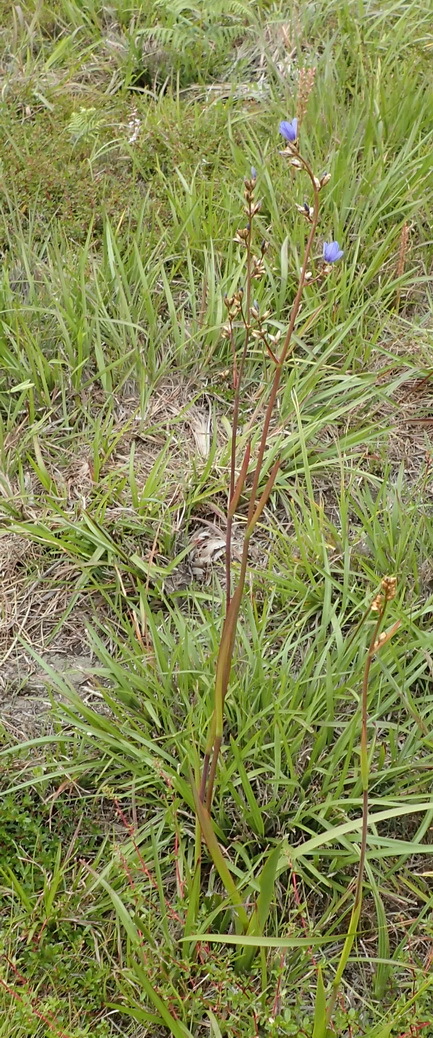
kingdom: Plantae
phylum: Tracheophyta
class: Liliopsida
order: Asparagales
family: Iridaceae
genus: Aristea
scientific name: Aristea bakeri
